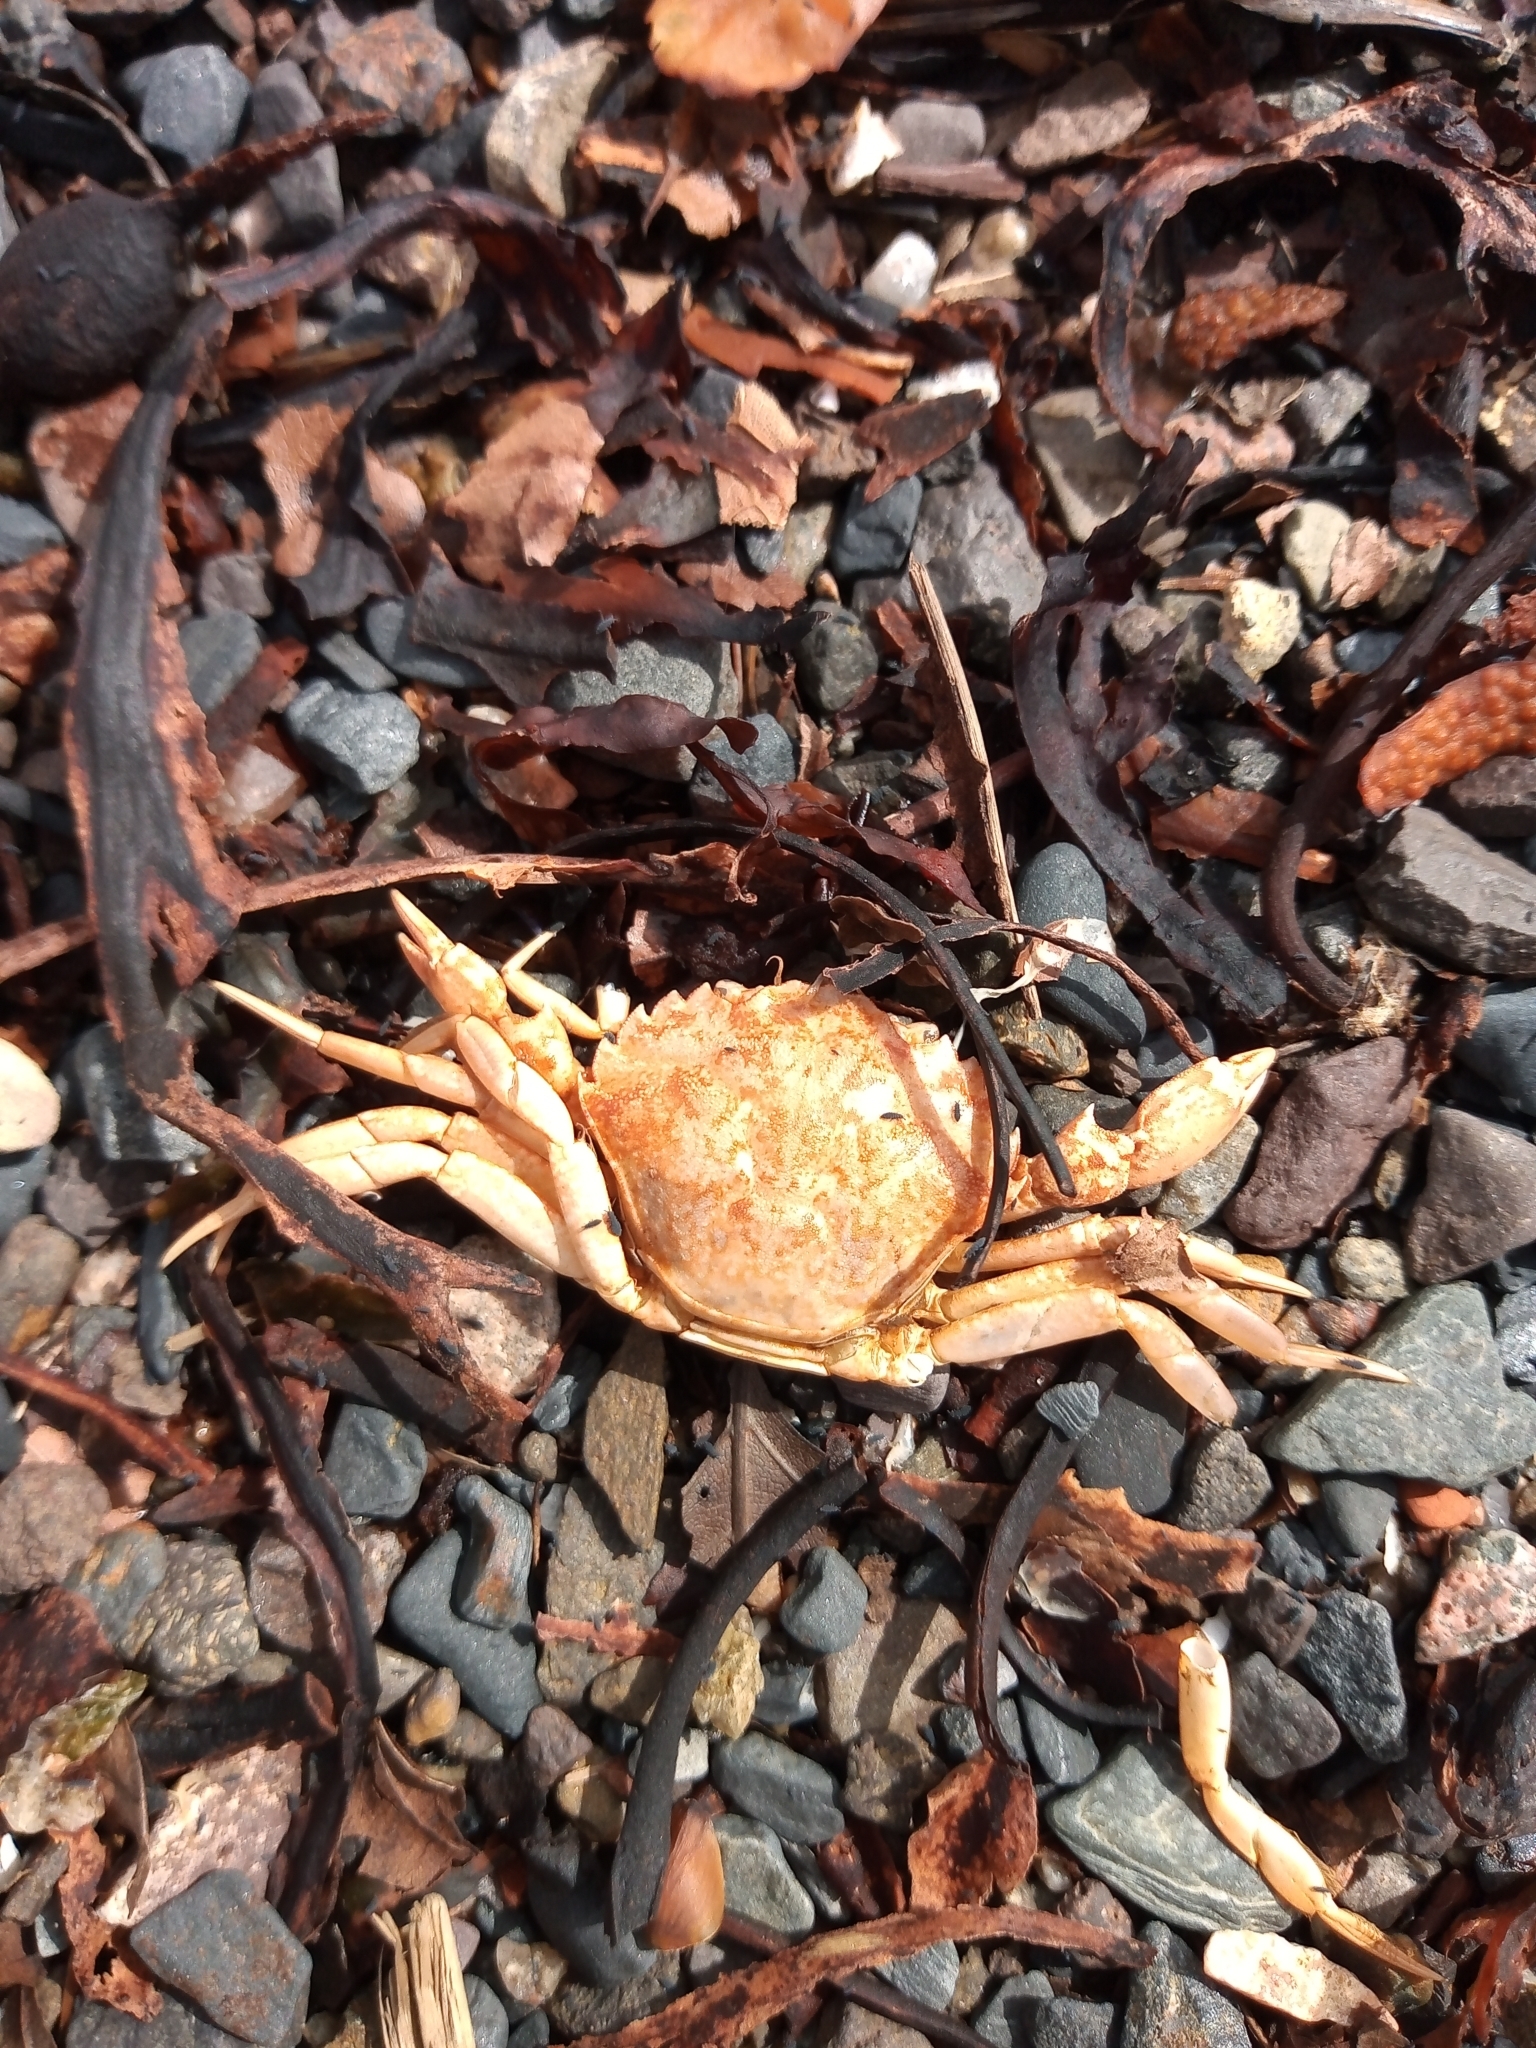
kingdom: Animalia
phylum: Arthropoda
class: Malacostraca
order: Decapoda
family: Carcinidae
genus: Carcinus
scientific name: Carcinus maenas
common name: European green crab
